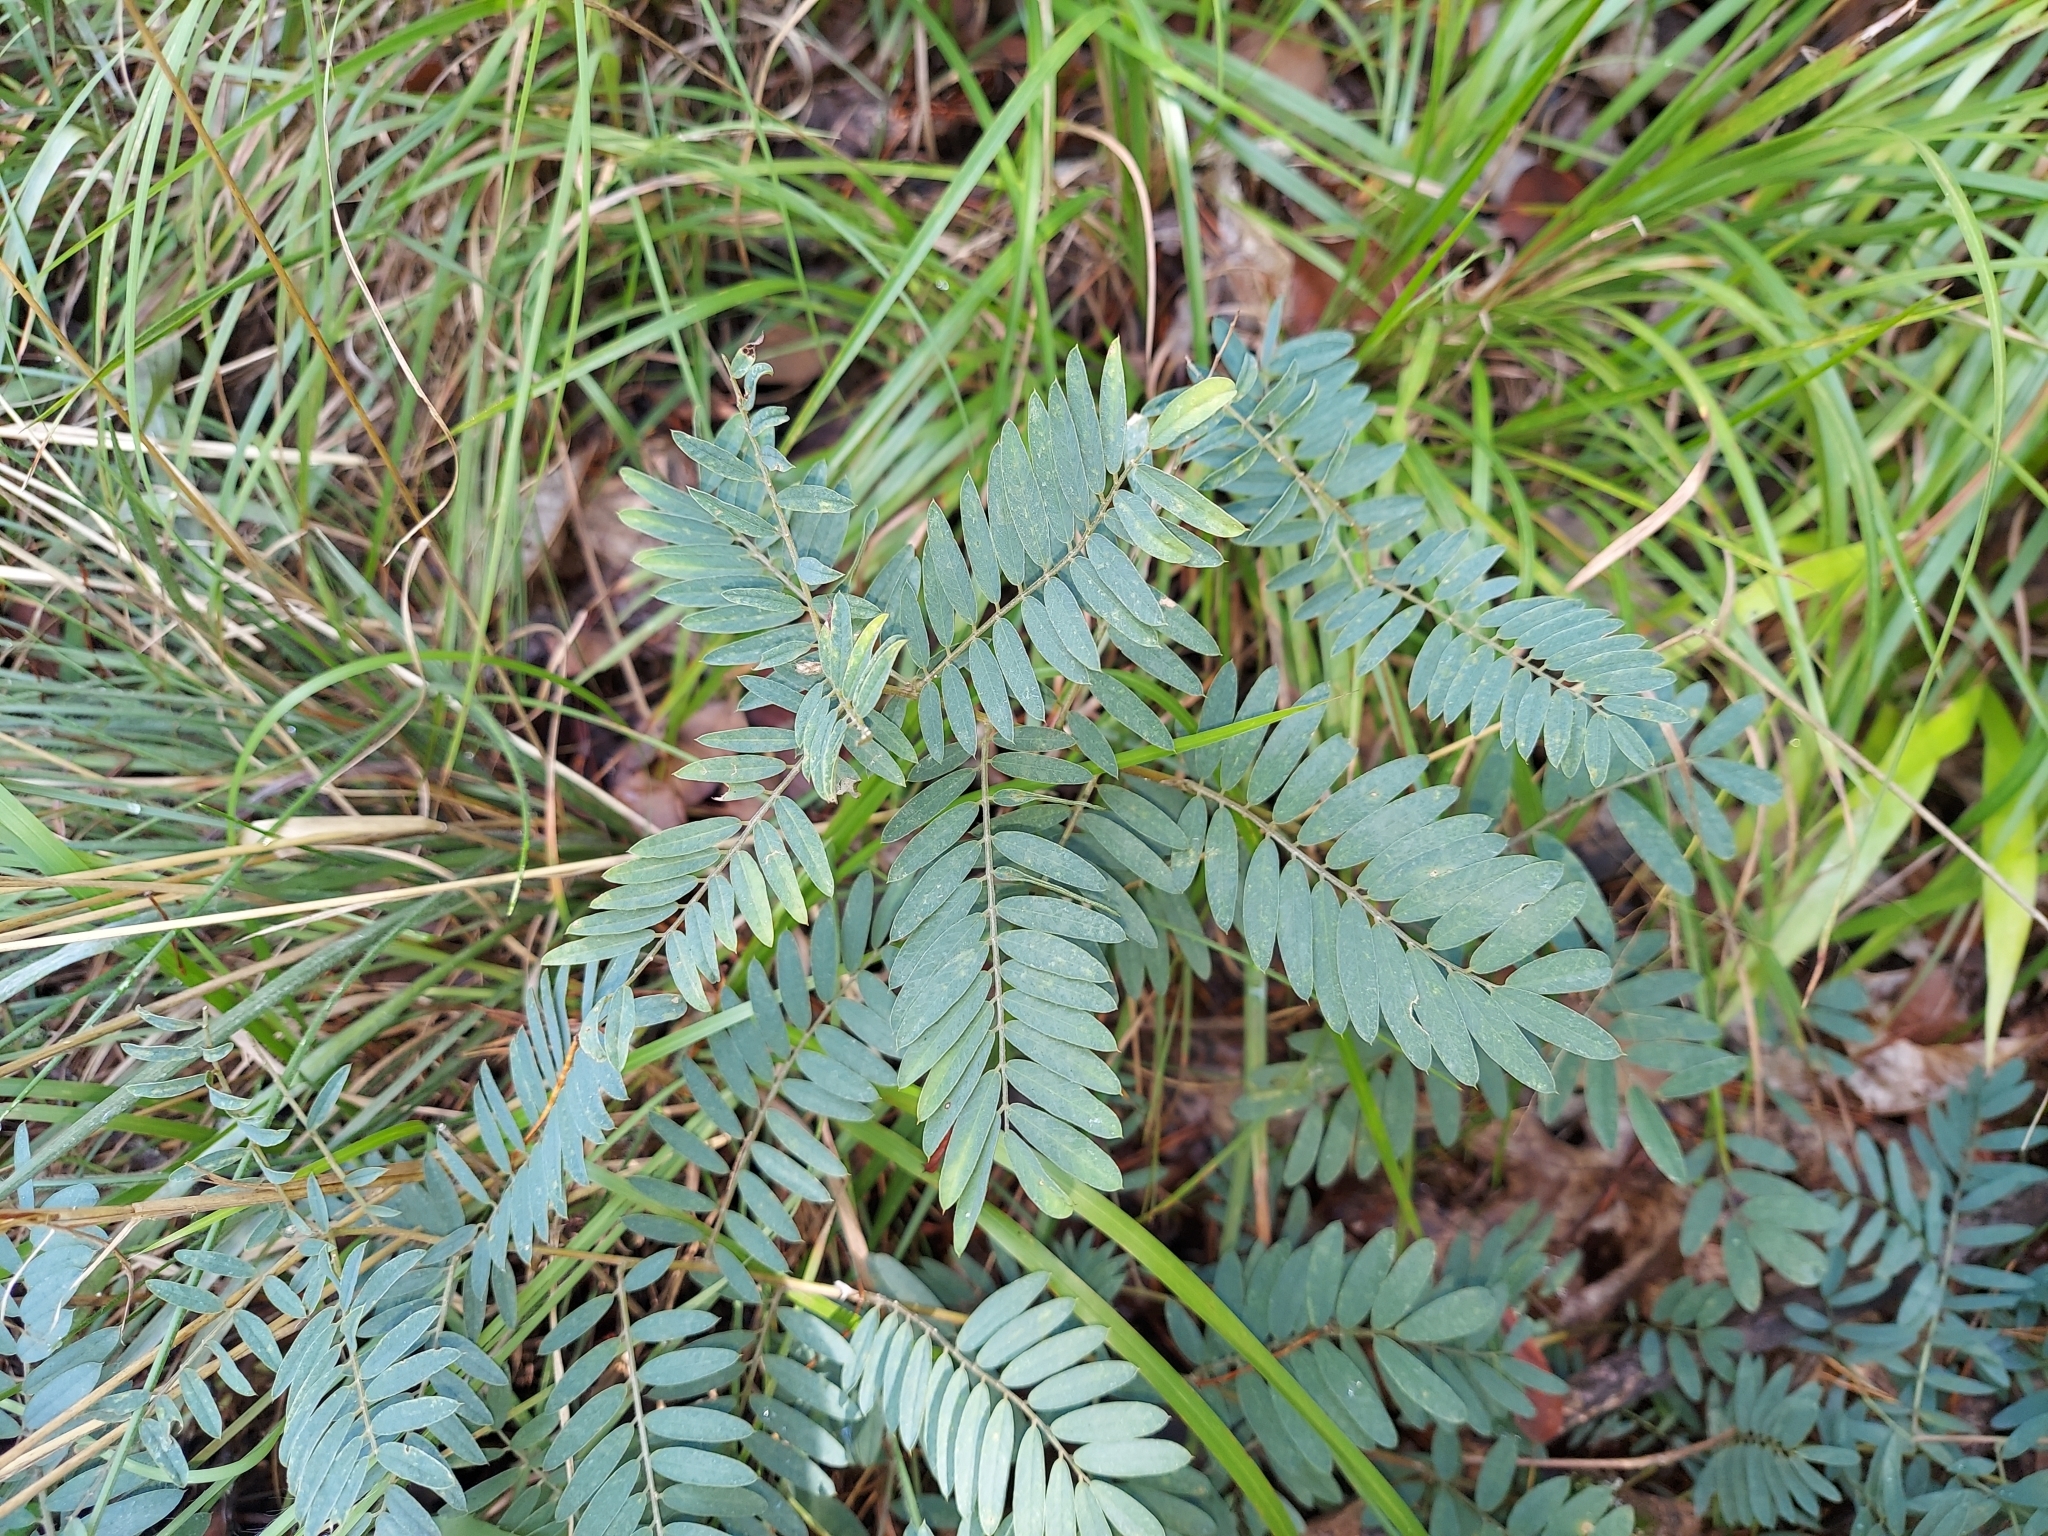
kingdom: Plantae
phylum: Tracheophyta
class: Magnoliopsida
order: Fabales
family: Fabaceae
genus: Tephrosia
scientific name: Tephrosia virginiana
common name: Rabbit-pea
